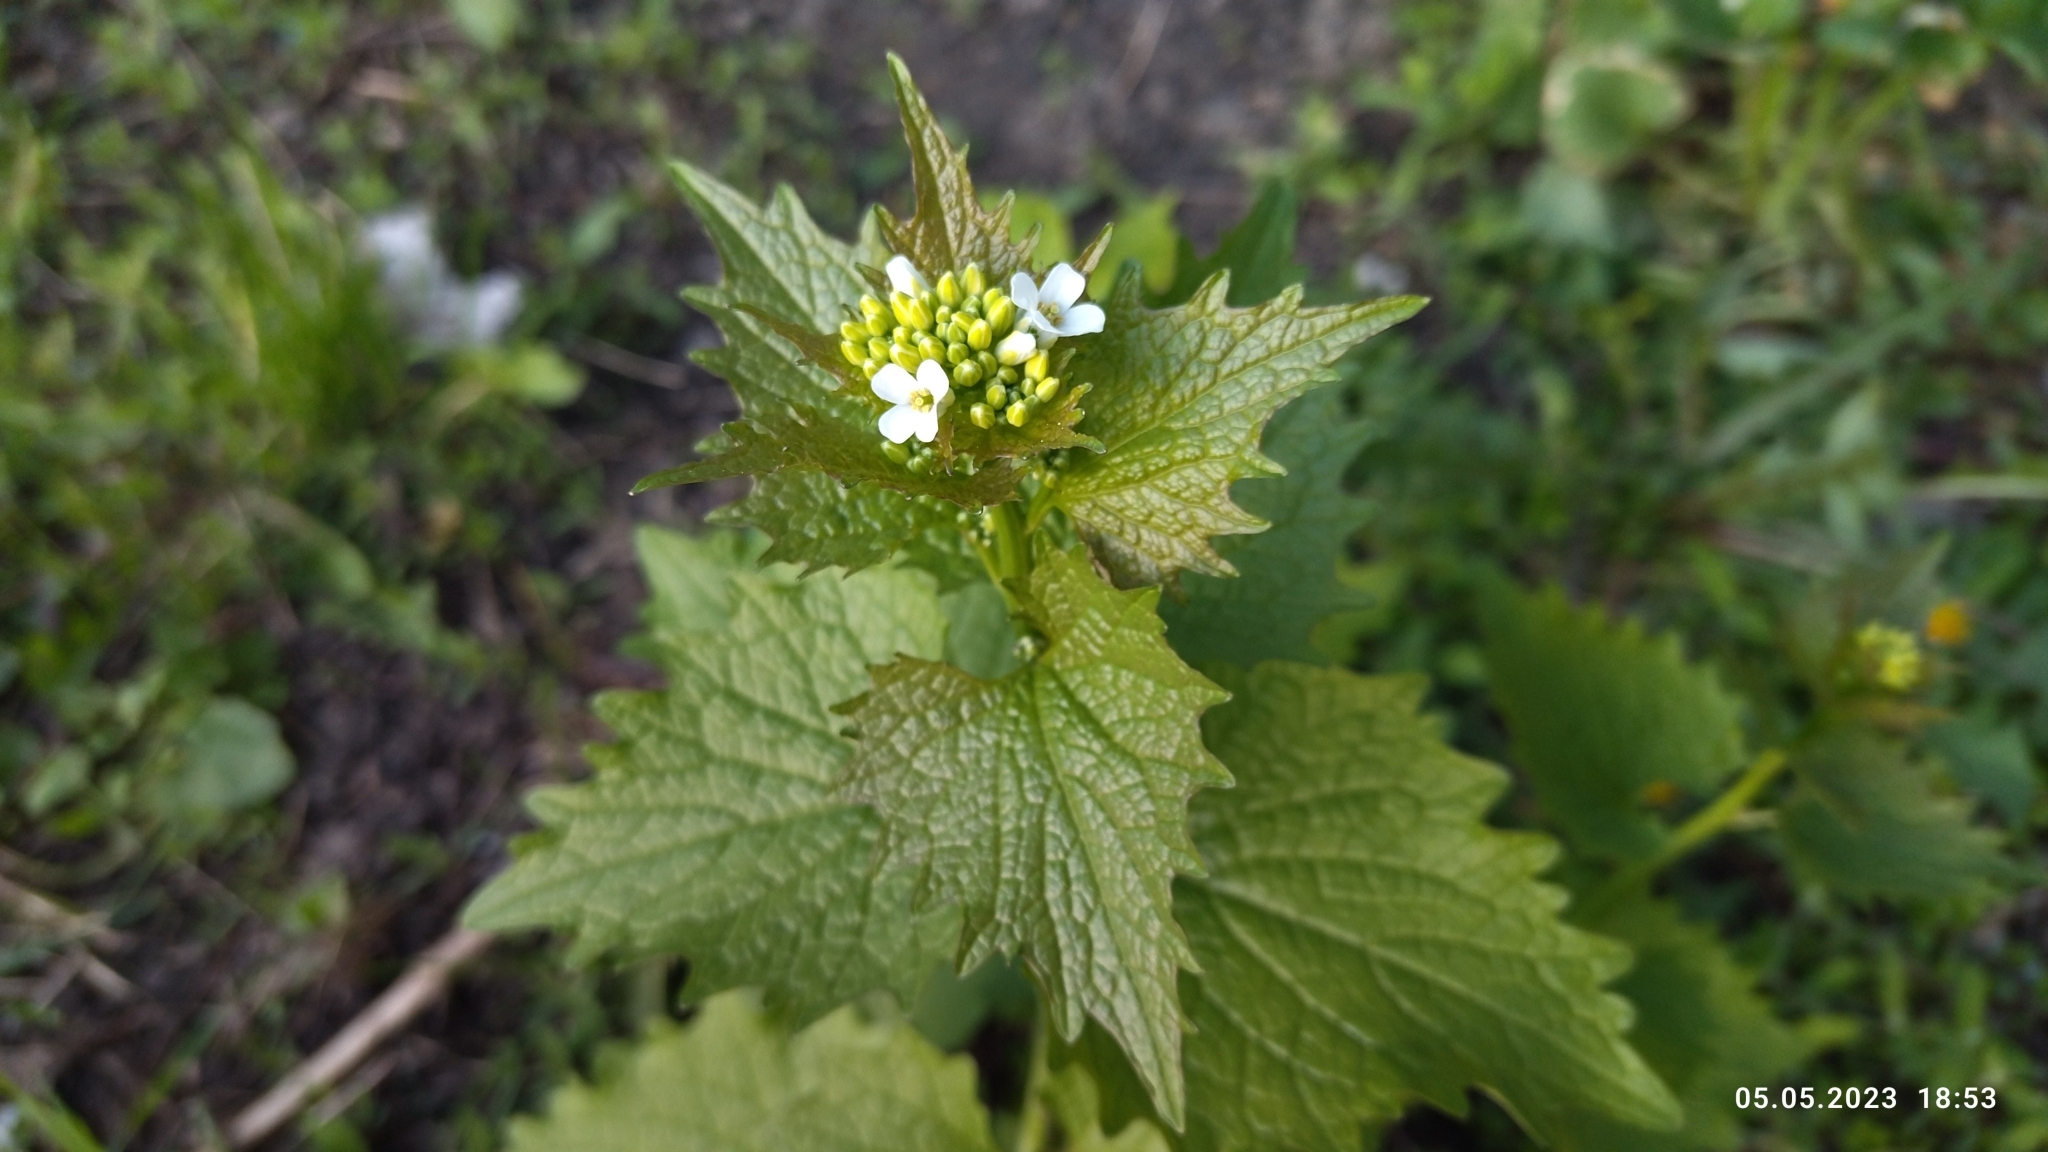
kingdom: Plantae
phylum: Tracheophyta
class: Magnoliopsida
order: Brassicales
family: Brassicaceae
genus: Alliaria
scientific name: Alliaria petiolata
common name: Garlic mustard
